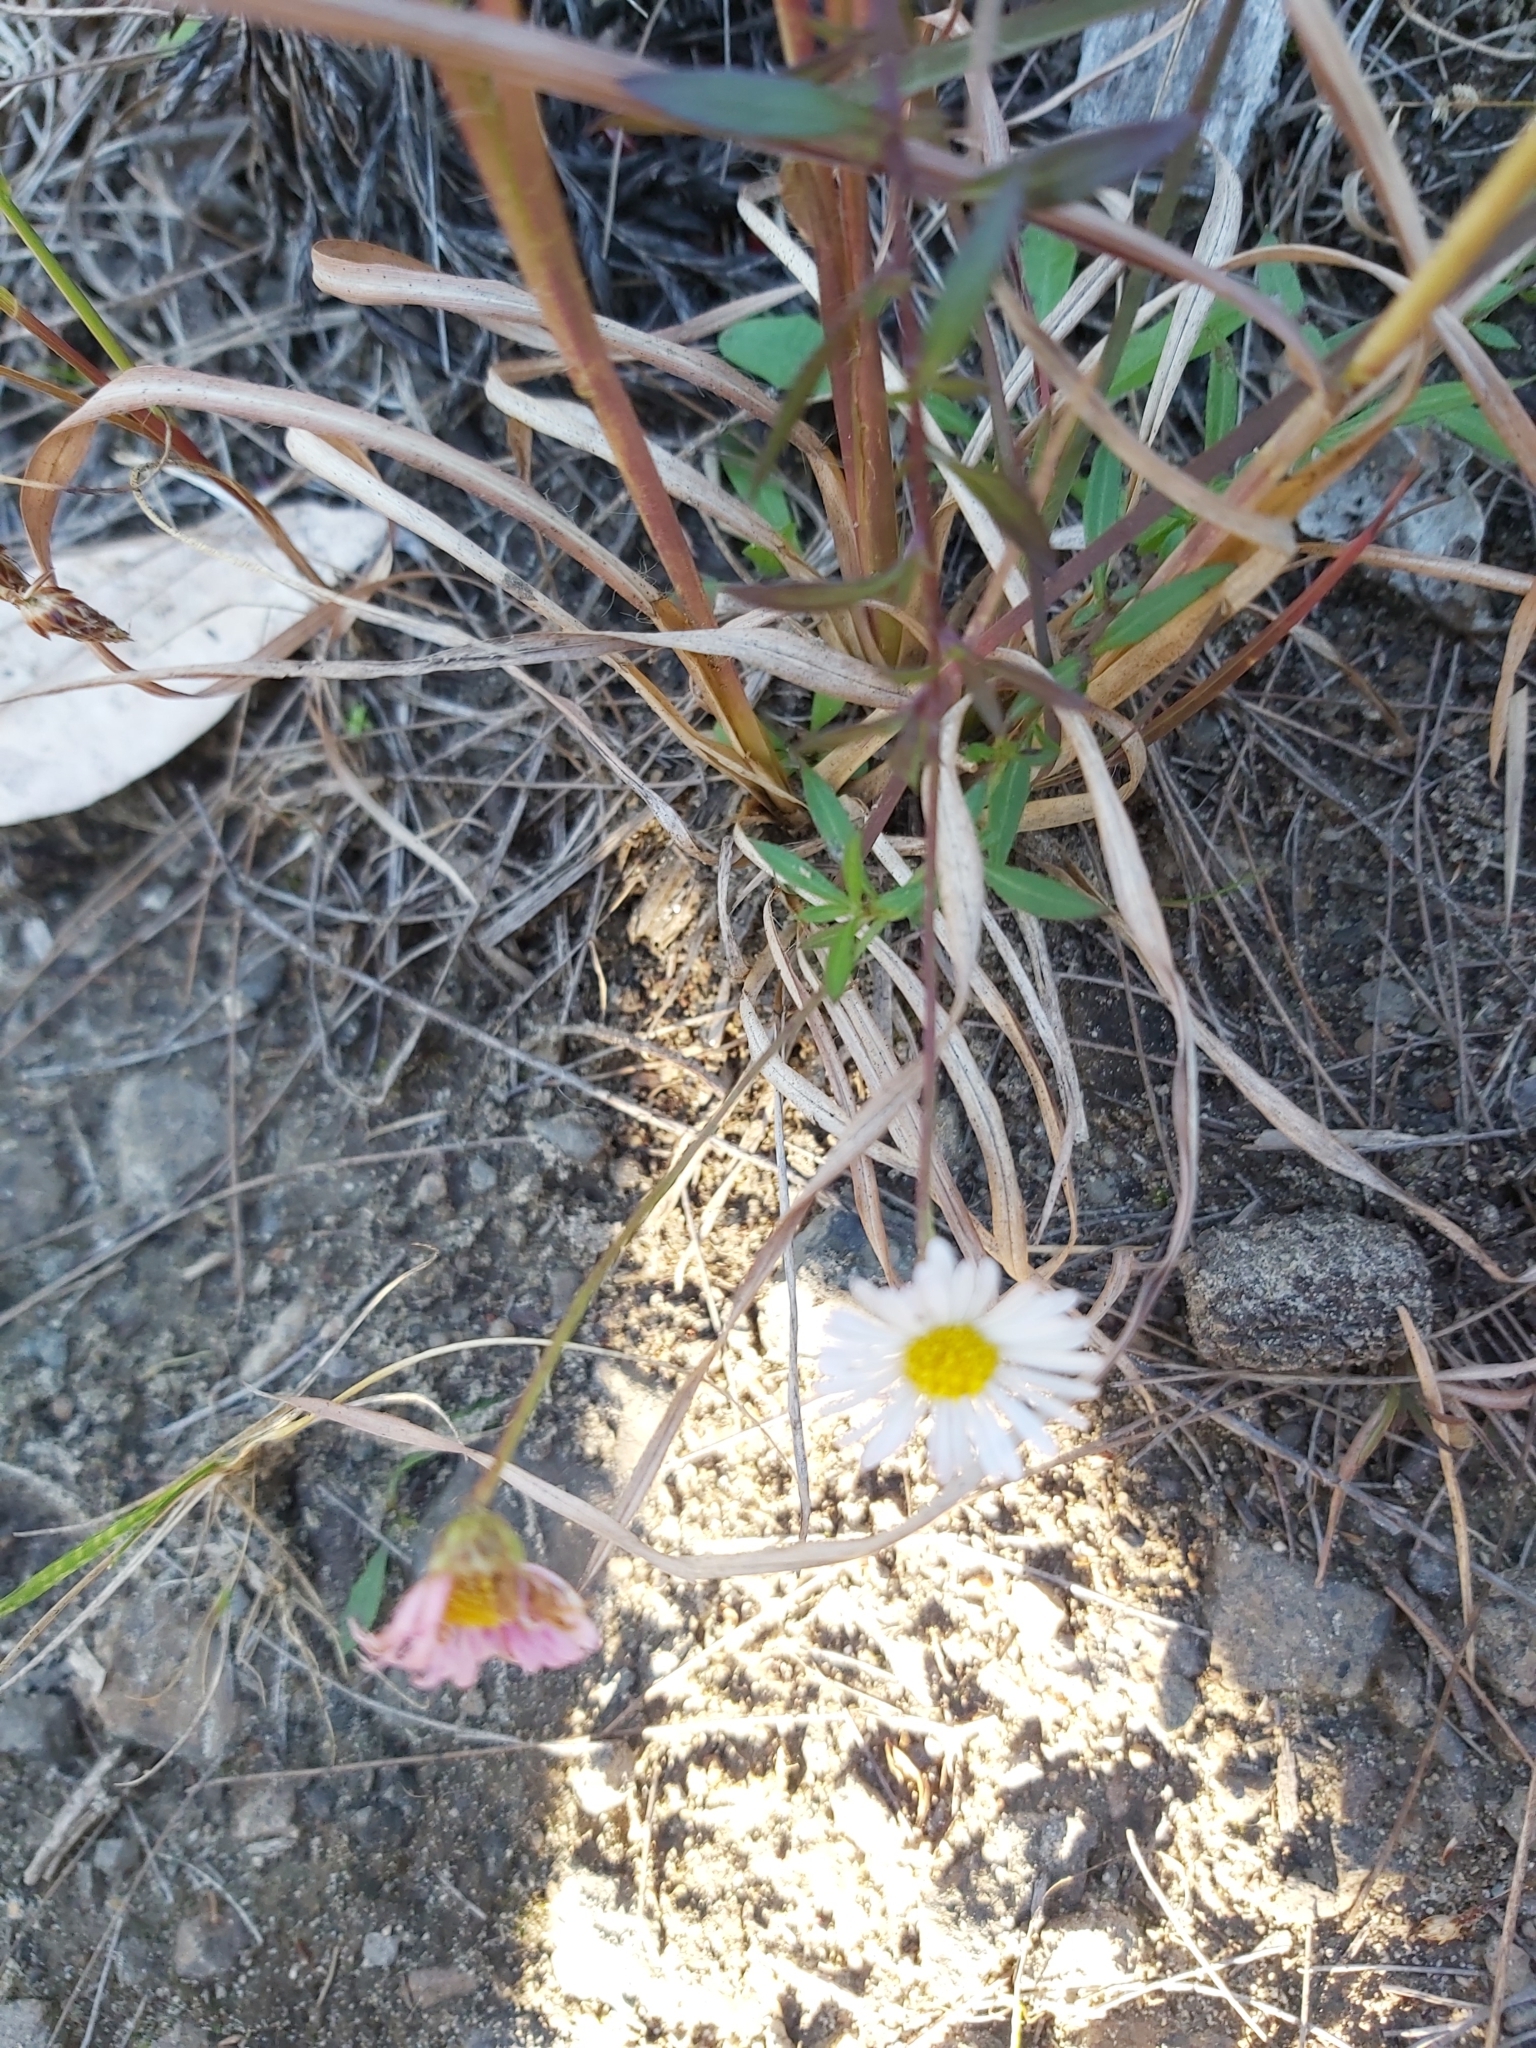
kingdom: Plantae
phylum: Tracheophyta
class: Magnoliopsida
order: Asterales
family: Asteraceae
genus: Erigeron
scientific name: Erigeron karvinskianus
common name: Mexican fleabane
